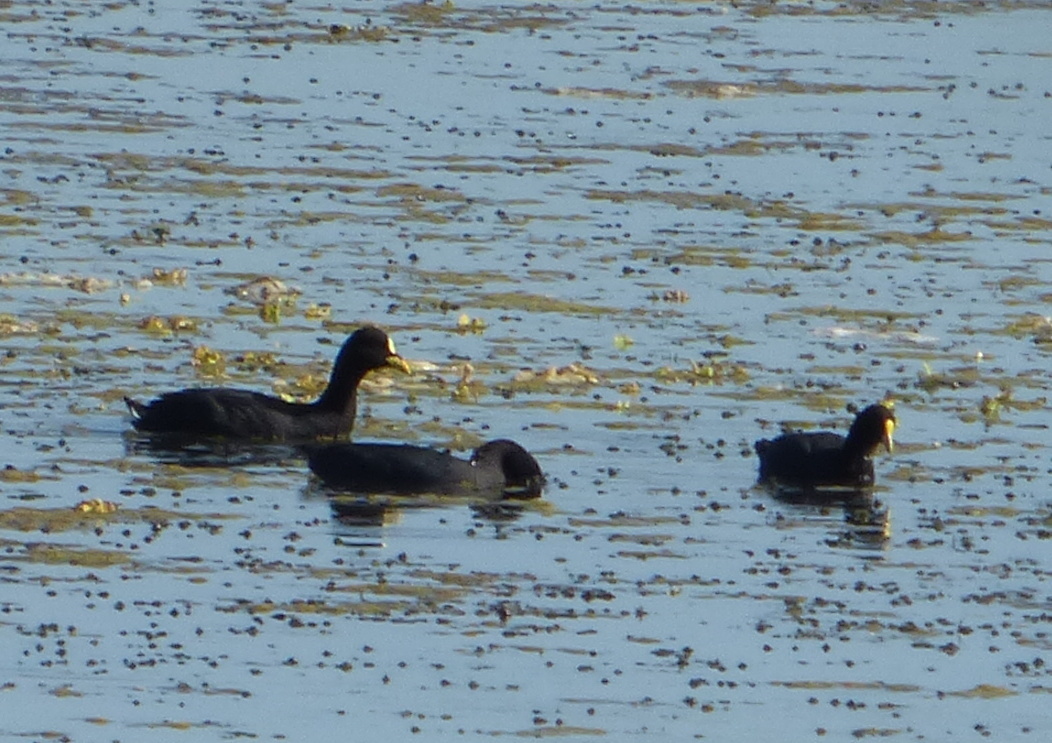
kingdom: Animalia
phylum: Chordata
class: Aves
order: Gruiformes
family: Rallidae
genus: Fulica
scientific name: Fulica armillata
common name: Red-gartered coot
